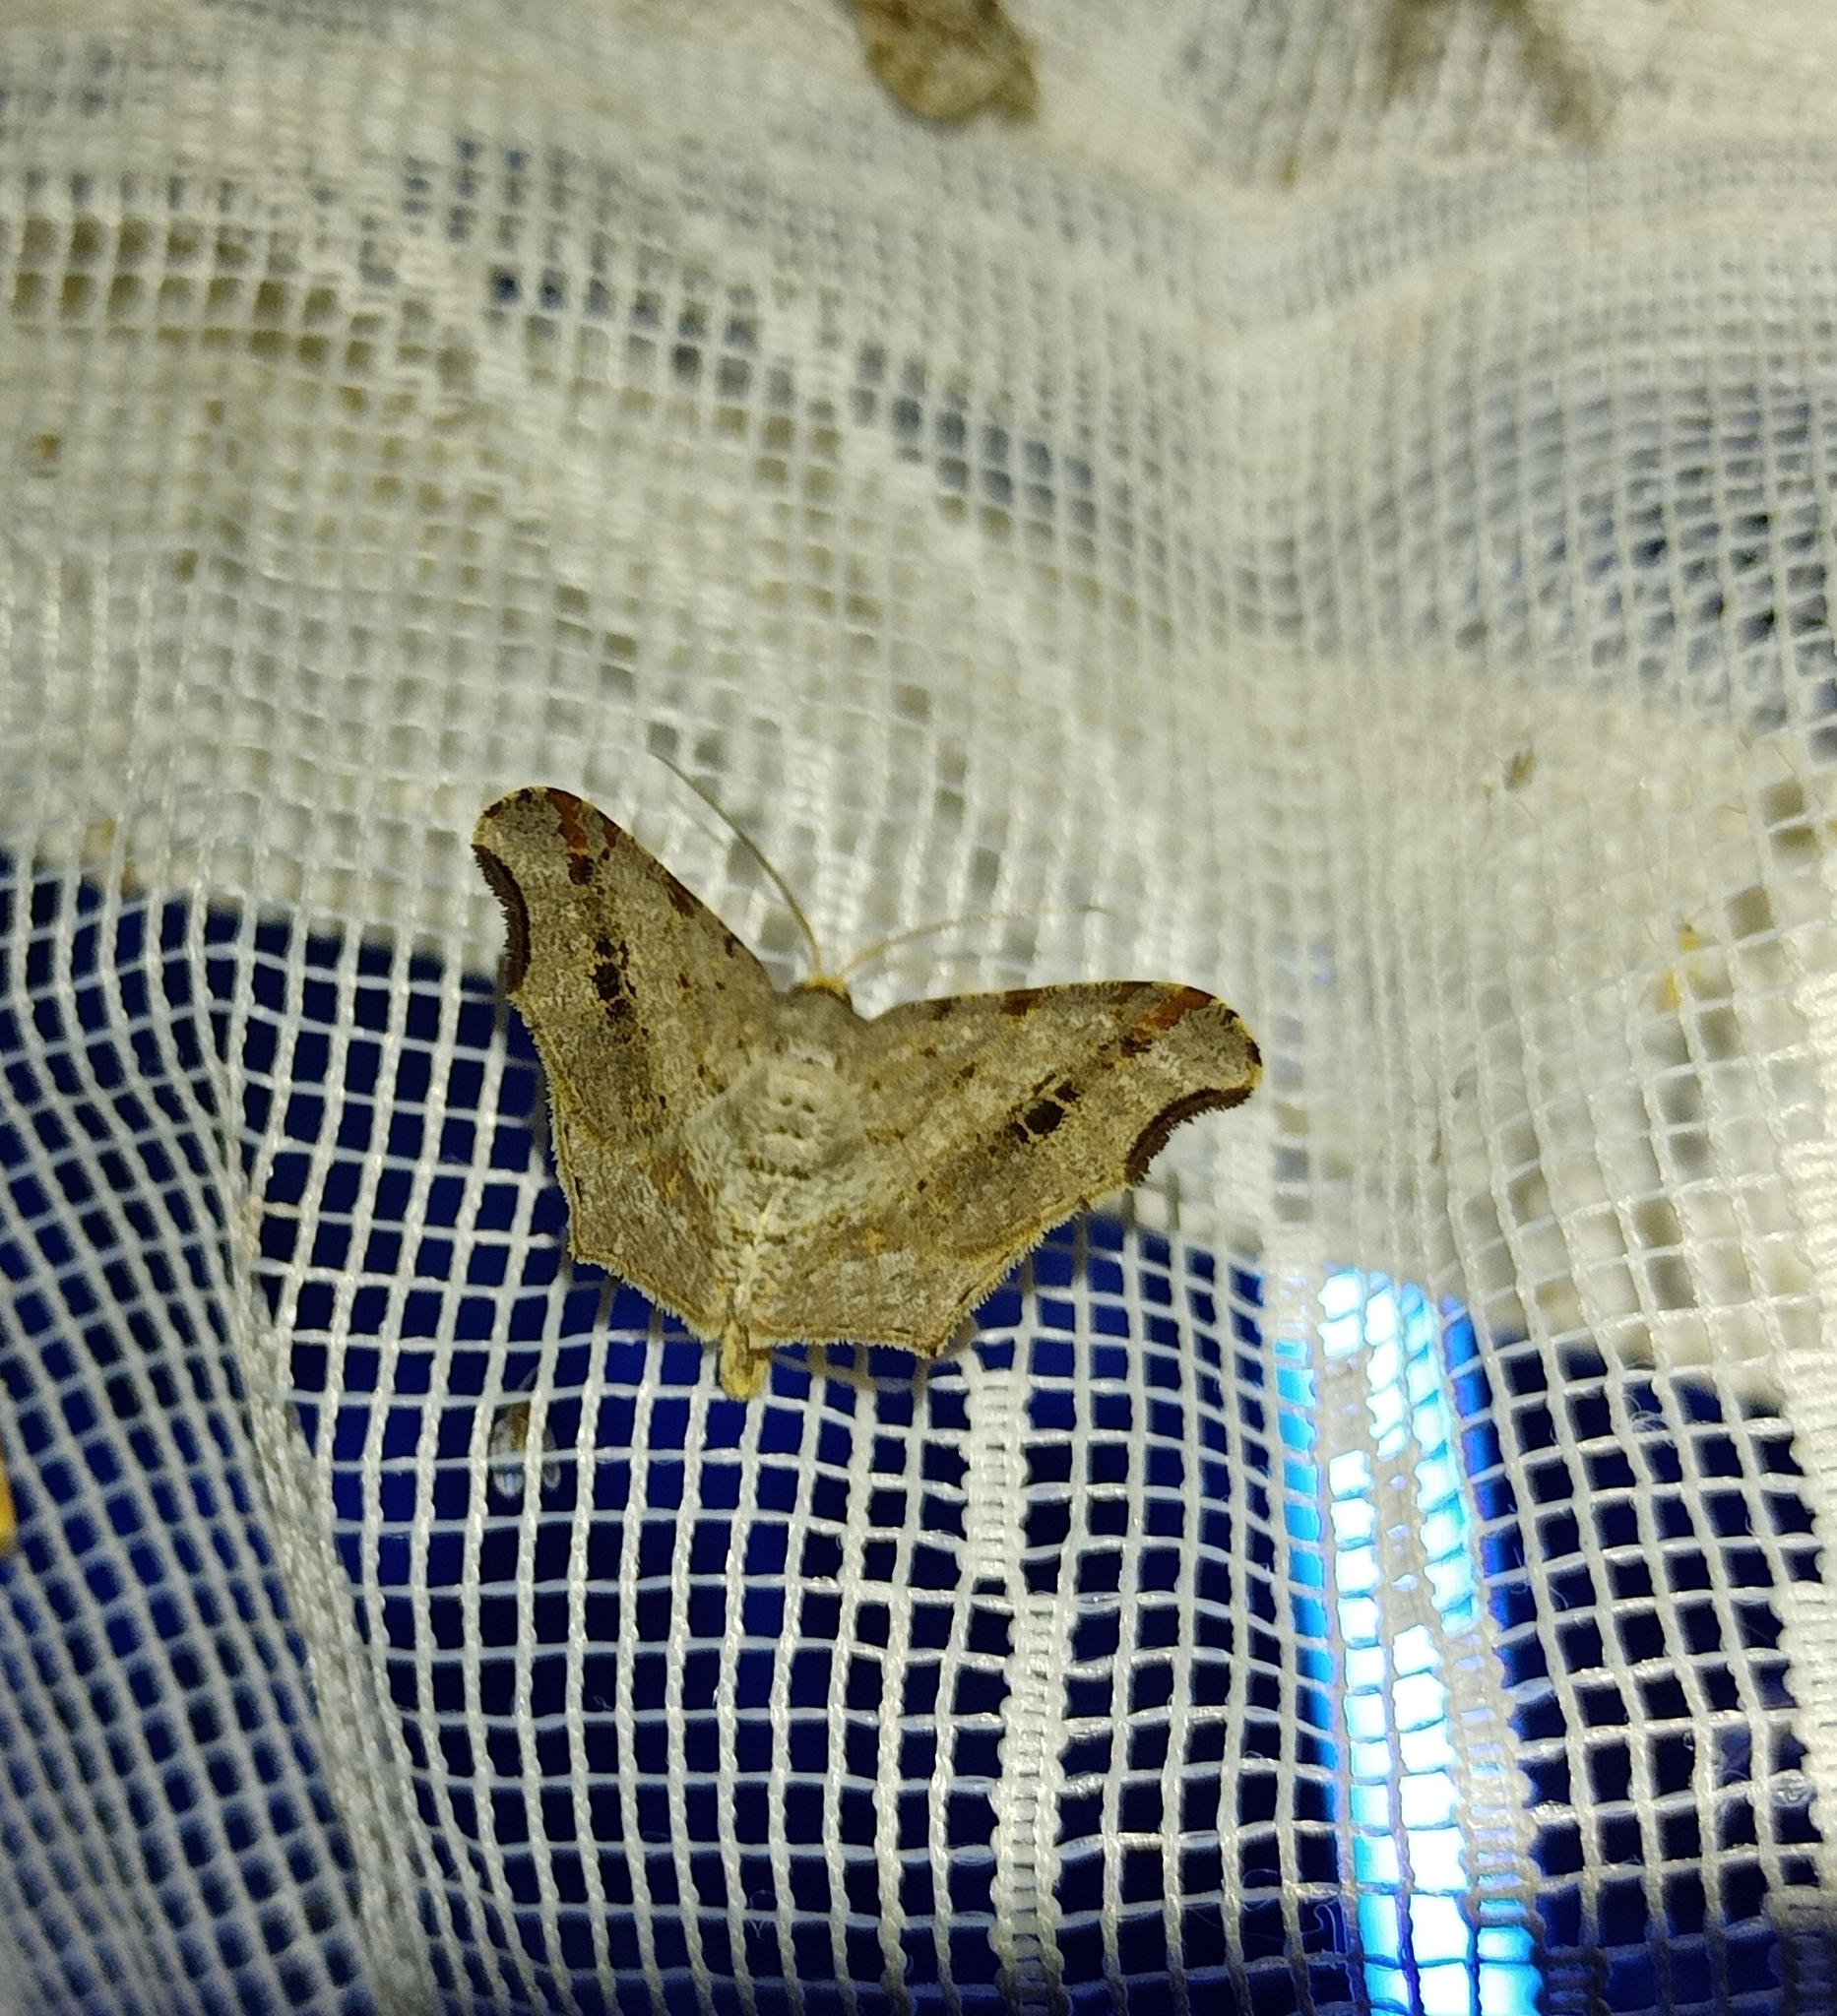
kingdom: Animalia
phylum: Arthropoda
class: Insecta
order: Lepidoptera
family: Geometridae
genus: Macaria
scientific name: Macaria alternata
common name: Sharp-angled peacock
